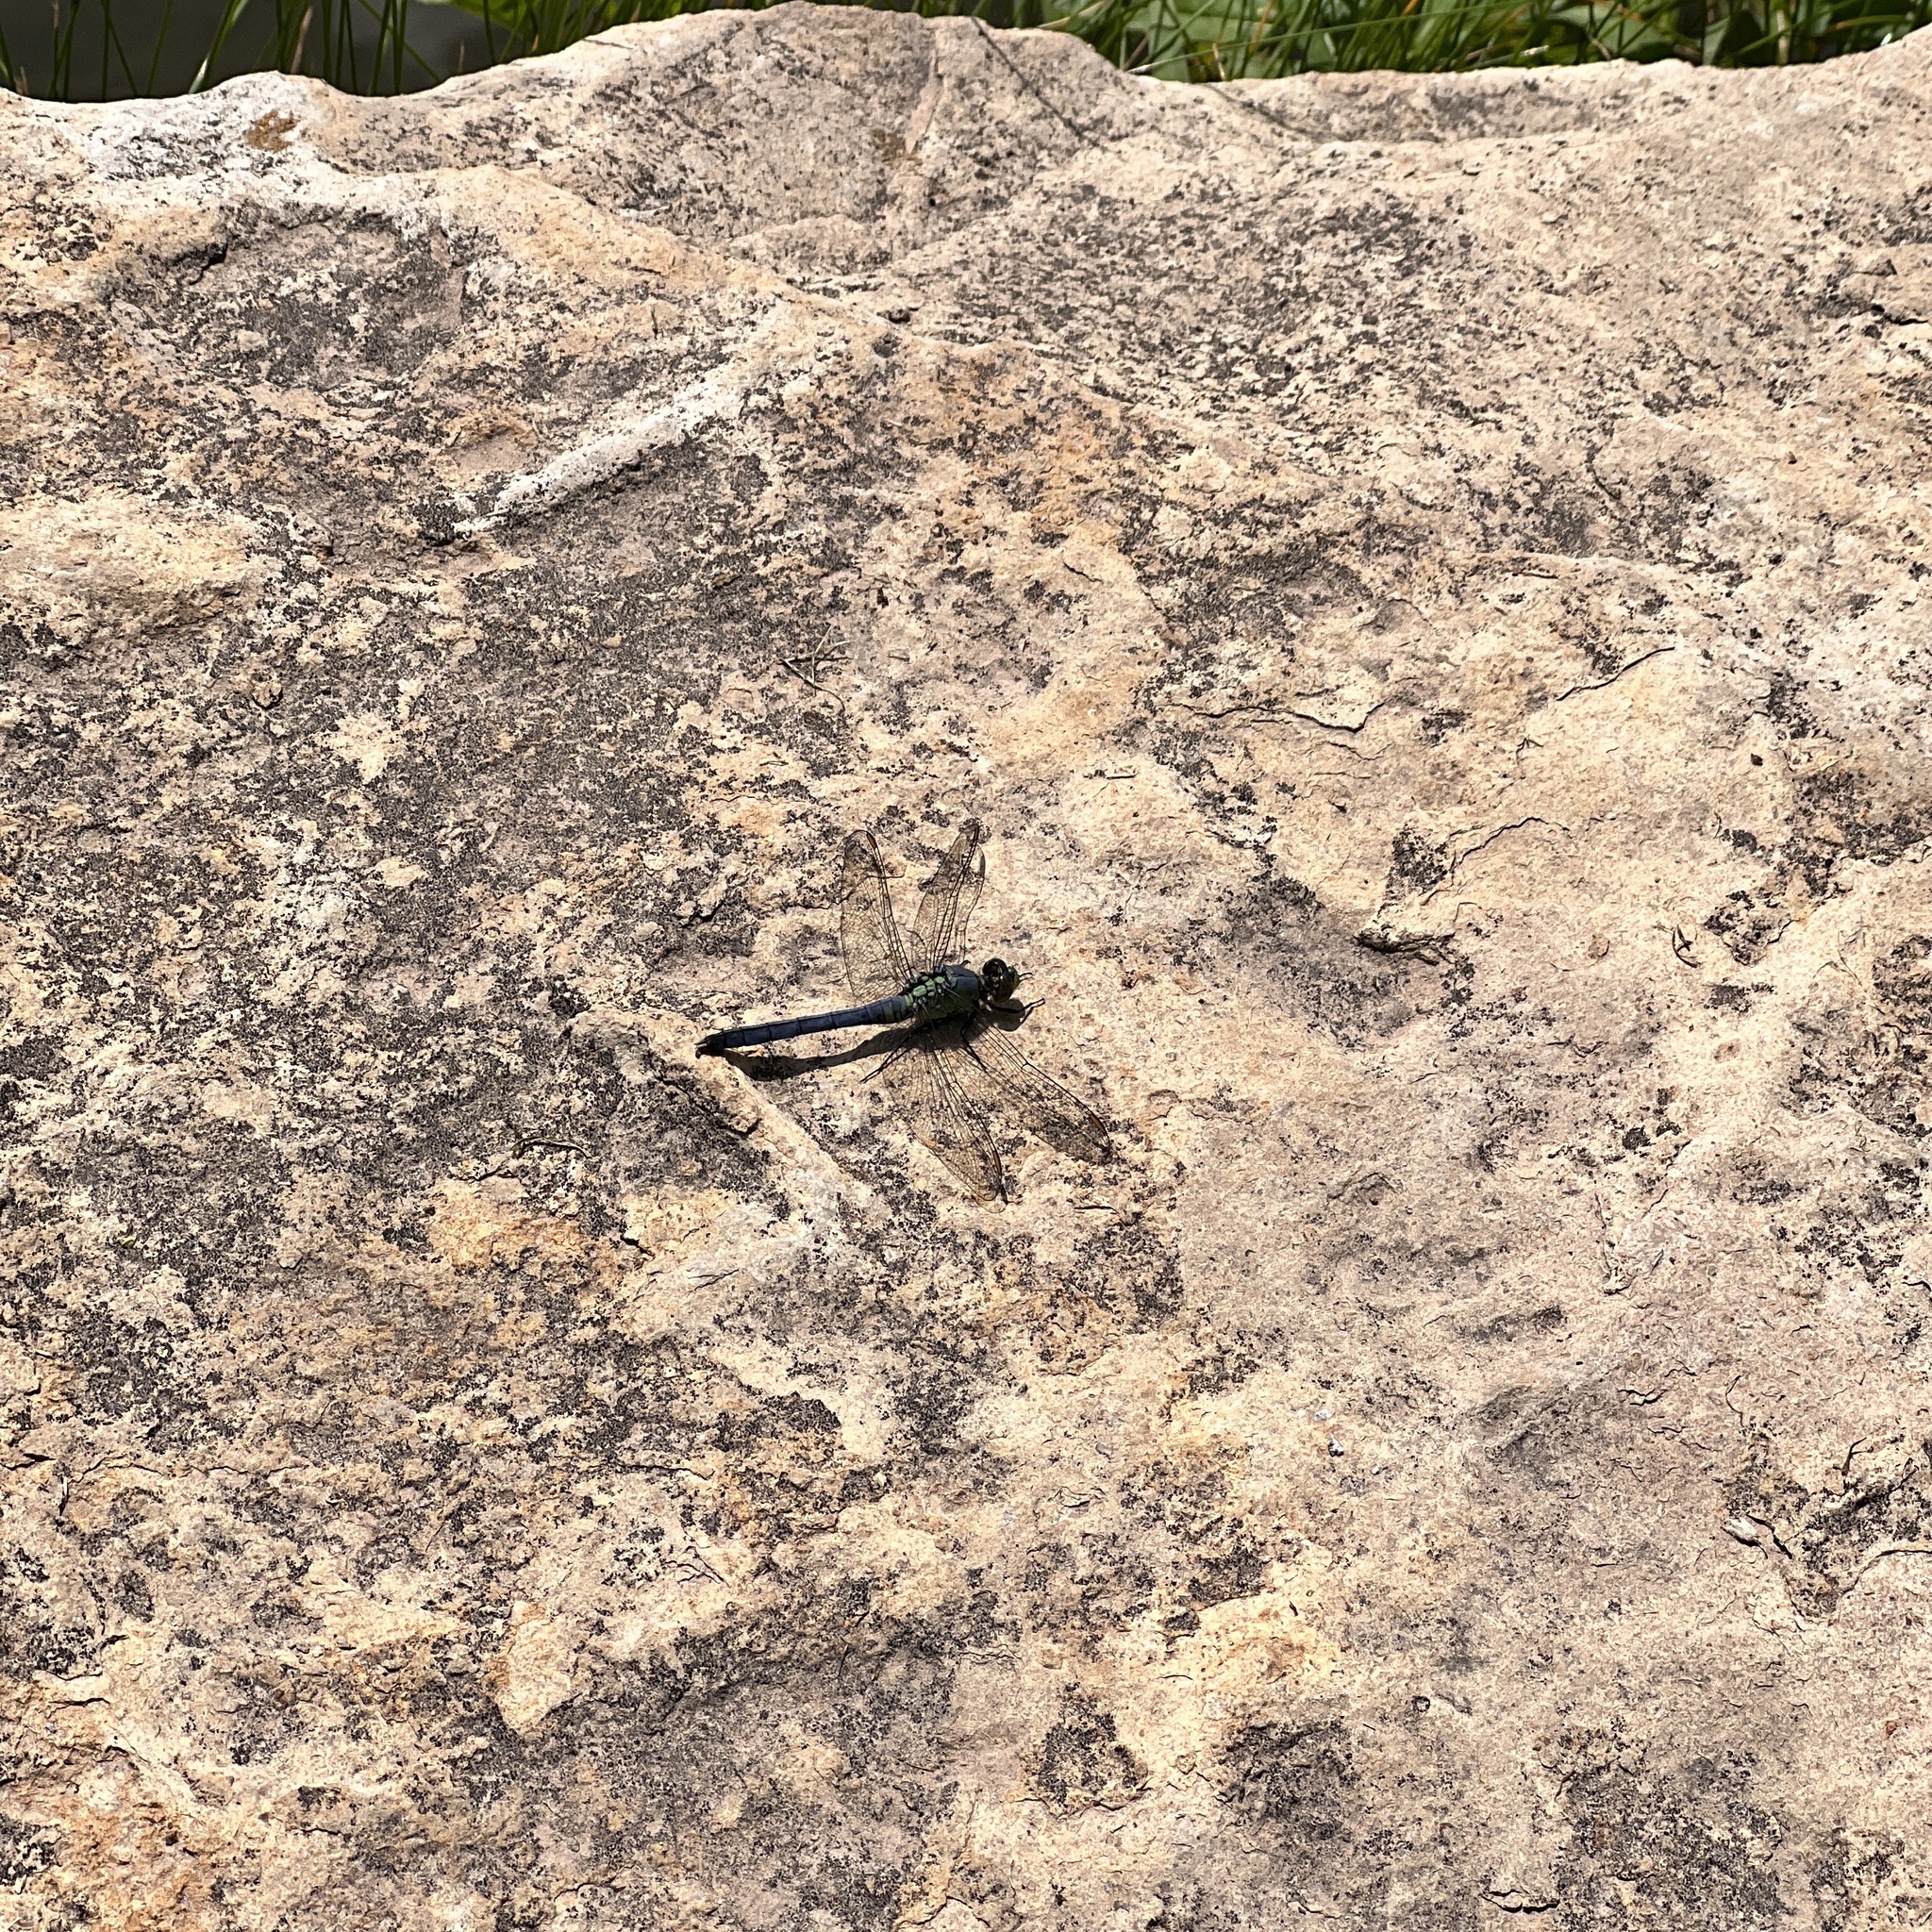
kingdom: Animalia
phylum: Arthropoda
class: Insecta
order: Odonata
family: Libellulidae
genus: Erythemis
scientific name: Erythemis simplicicollis
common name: Eastern pondhawk
